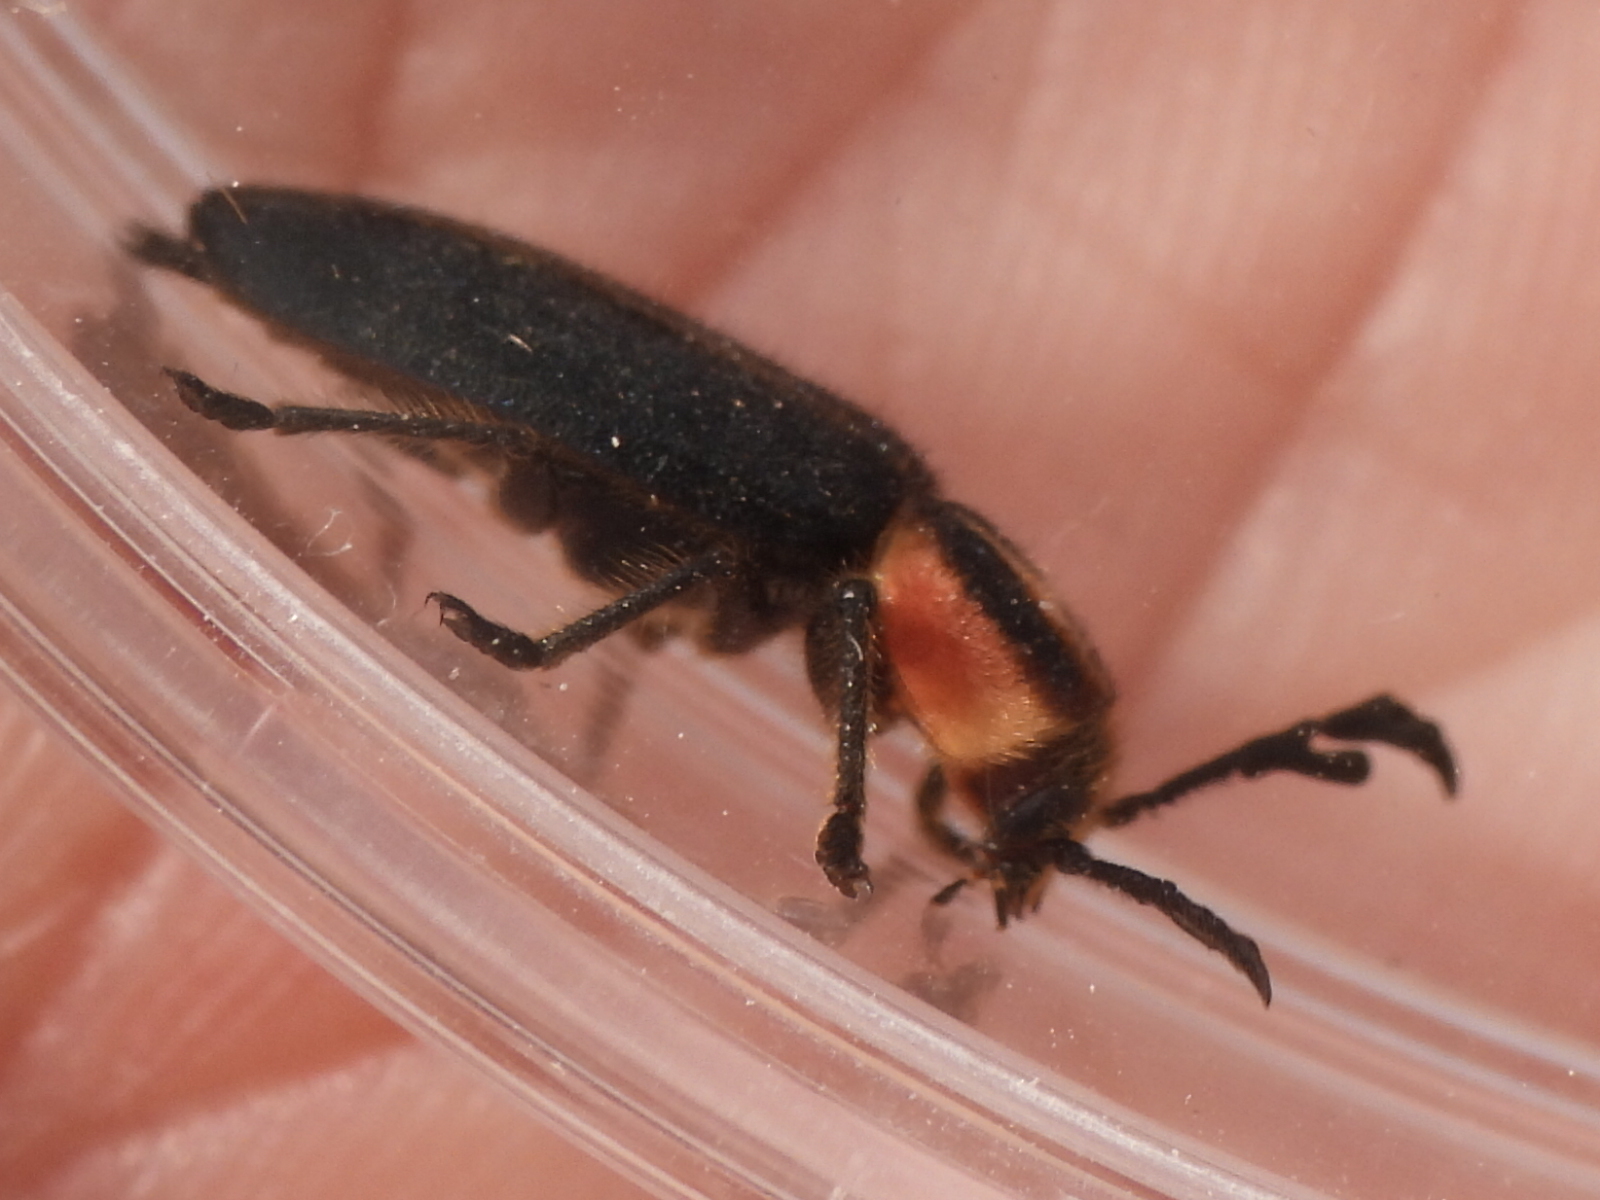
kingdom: Animalia
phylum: Arthropoda
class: Insecta
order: Coleoptera
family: Cleridae
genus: Chariessa
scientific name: Chariessa pilosa
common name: Pilose checkered beetle
